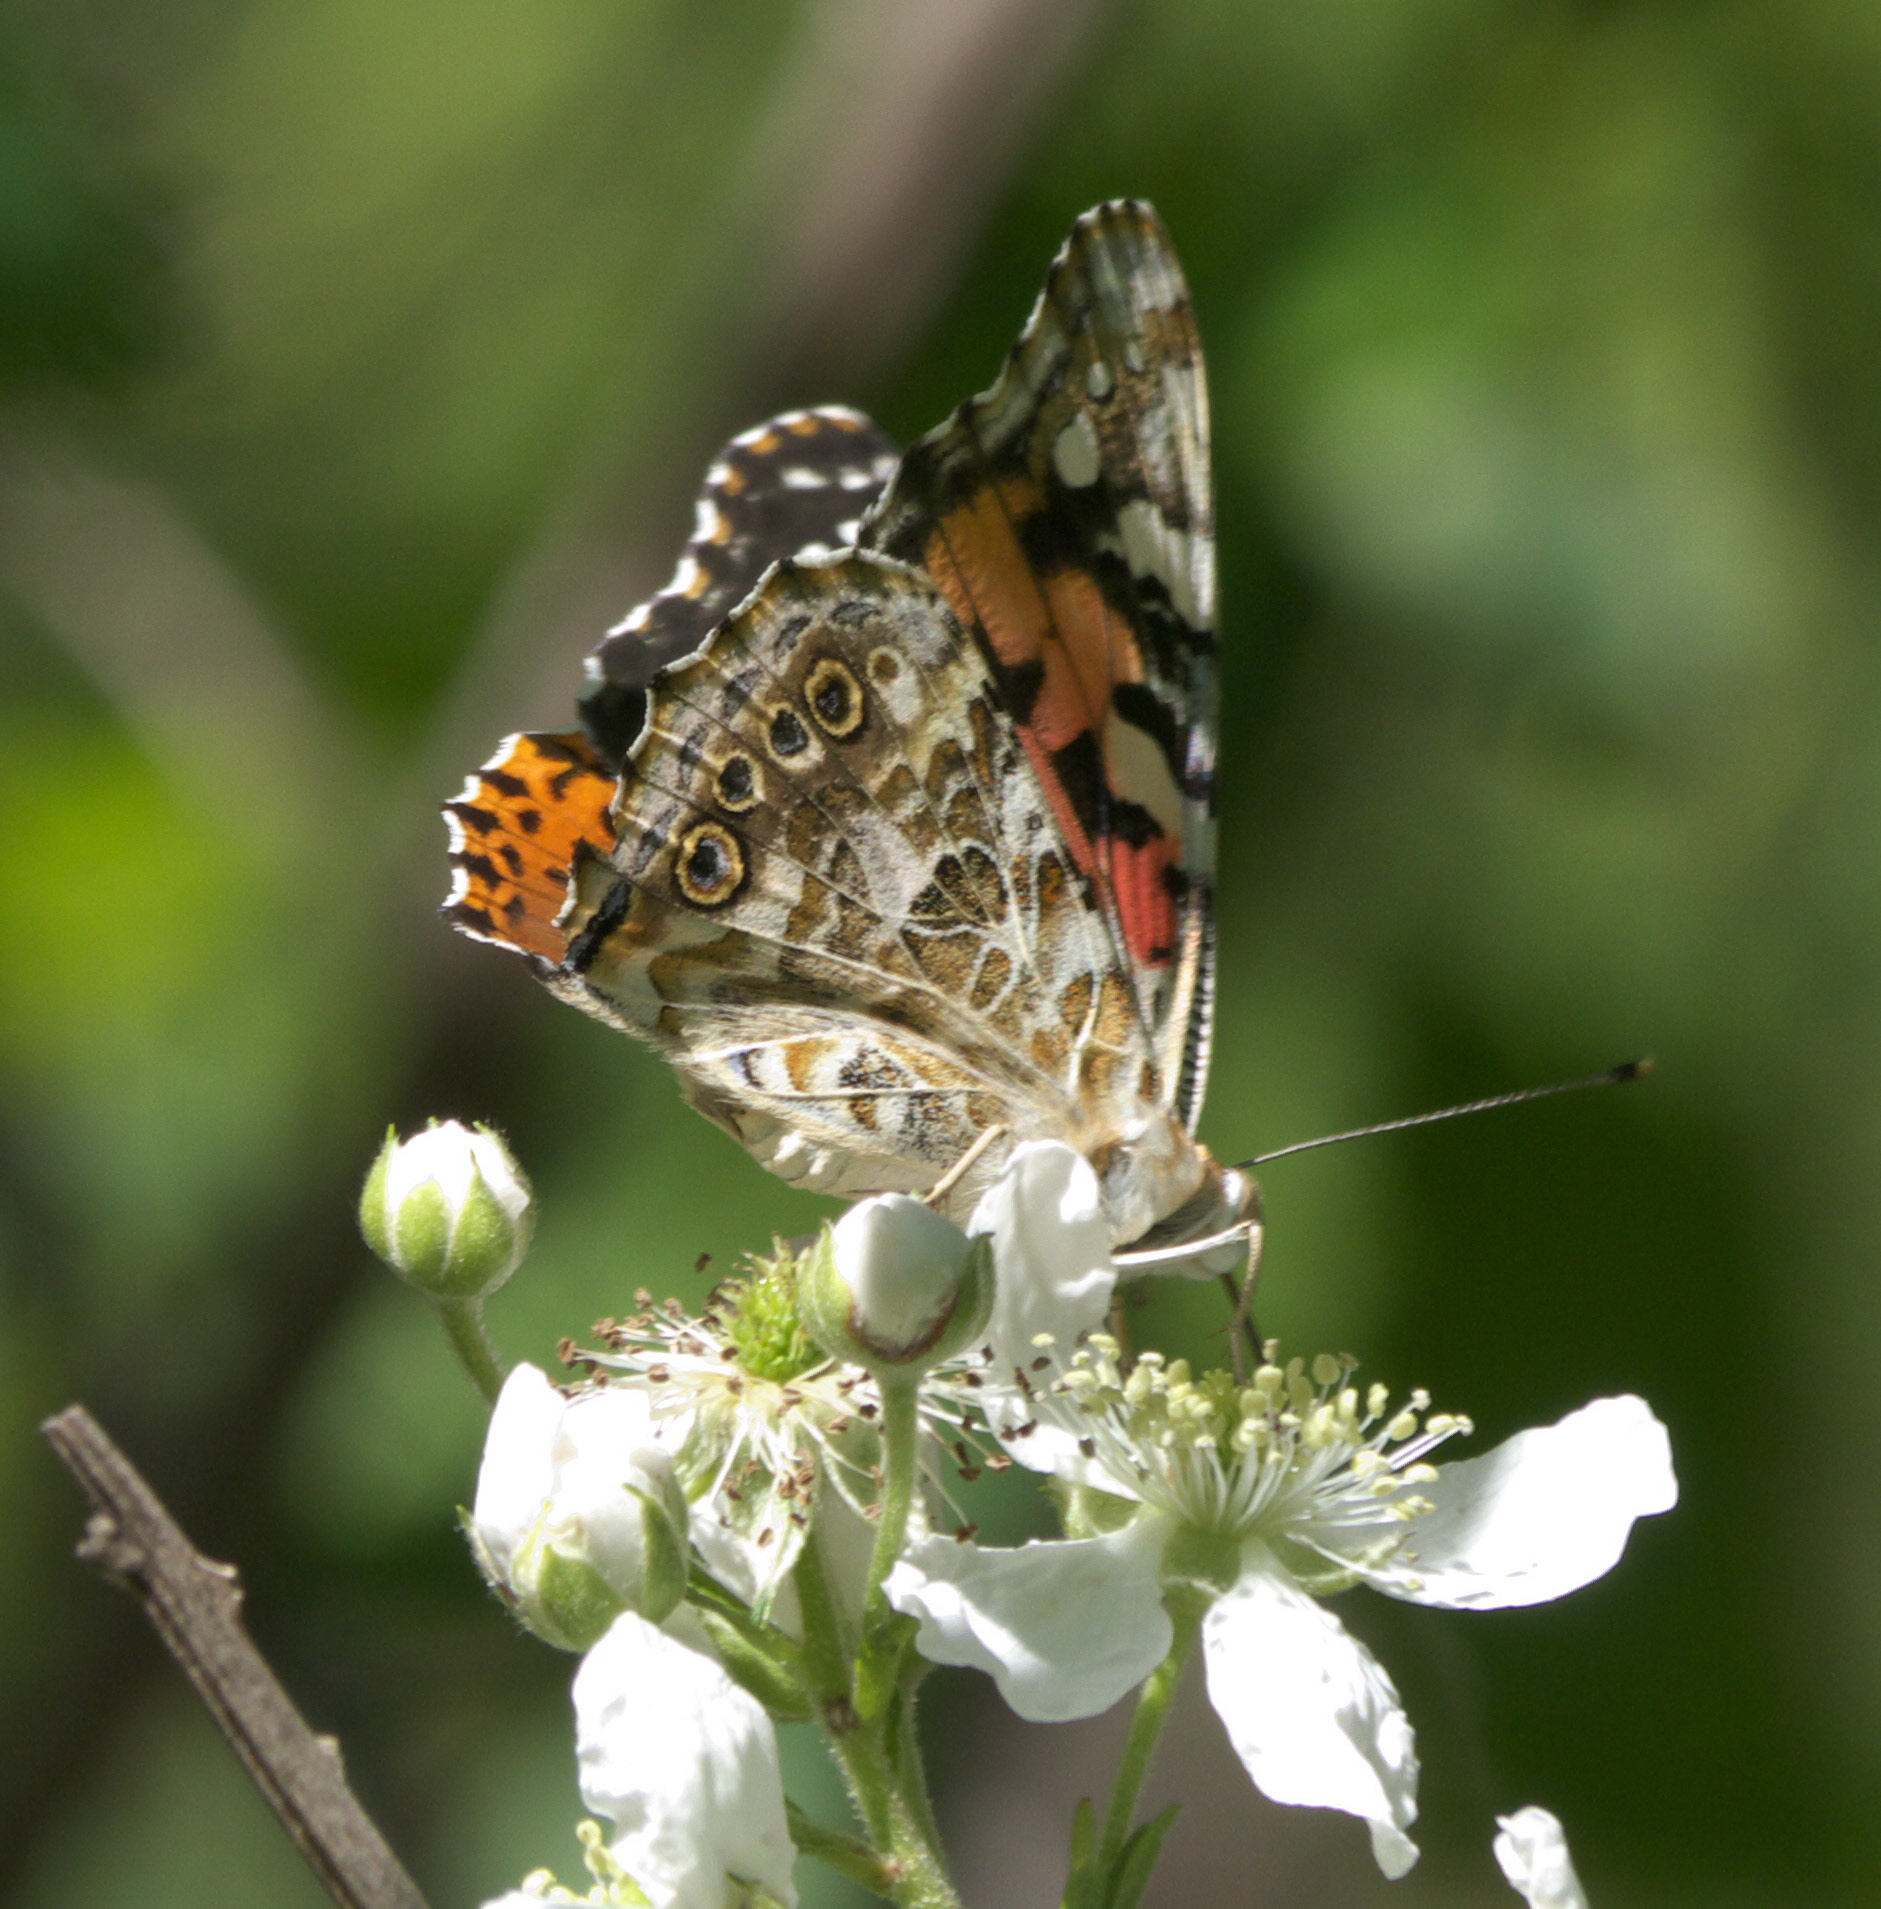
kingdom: Animalia
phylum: Arthropoda
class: Insecta
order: Lepidoptera
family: Nymphalidae
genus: Vanessa
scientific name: Vanessa cardui
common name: Painted lady
